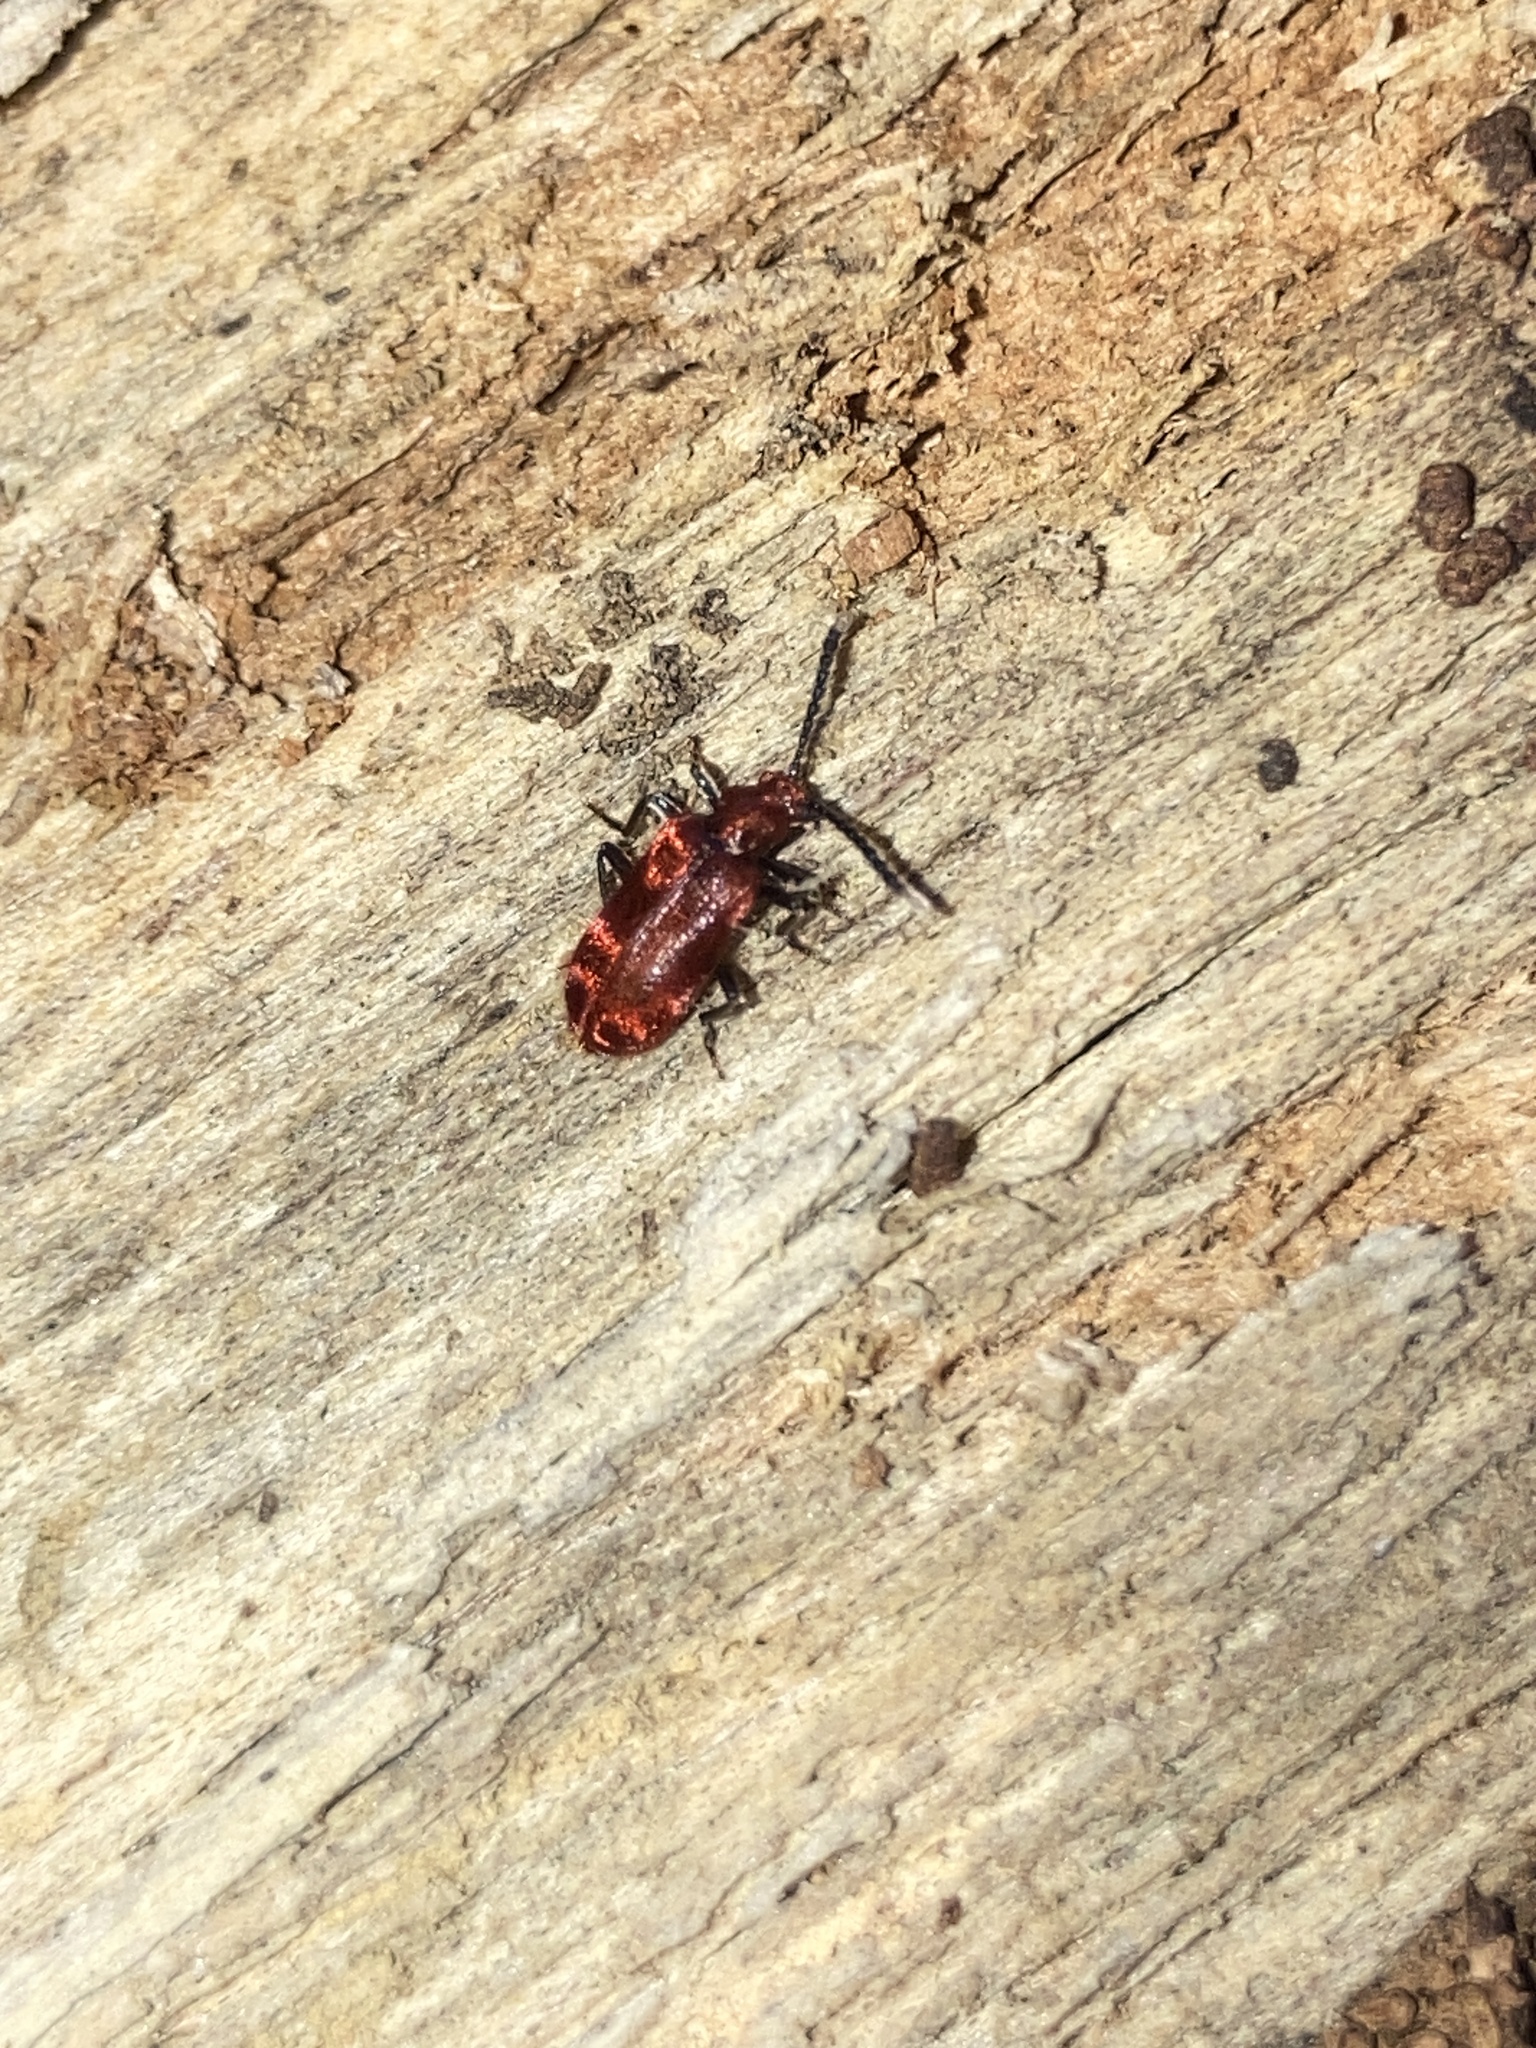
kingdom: Animalia
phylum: Arthropoda
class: Insecta
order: Coleoptera
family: Anthicidae
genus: Lemodes
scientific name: Lemodes
